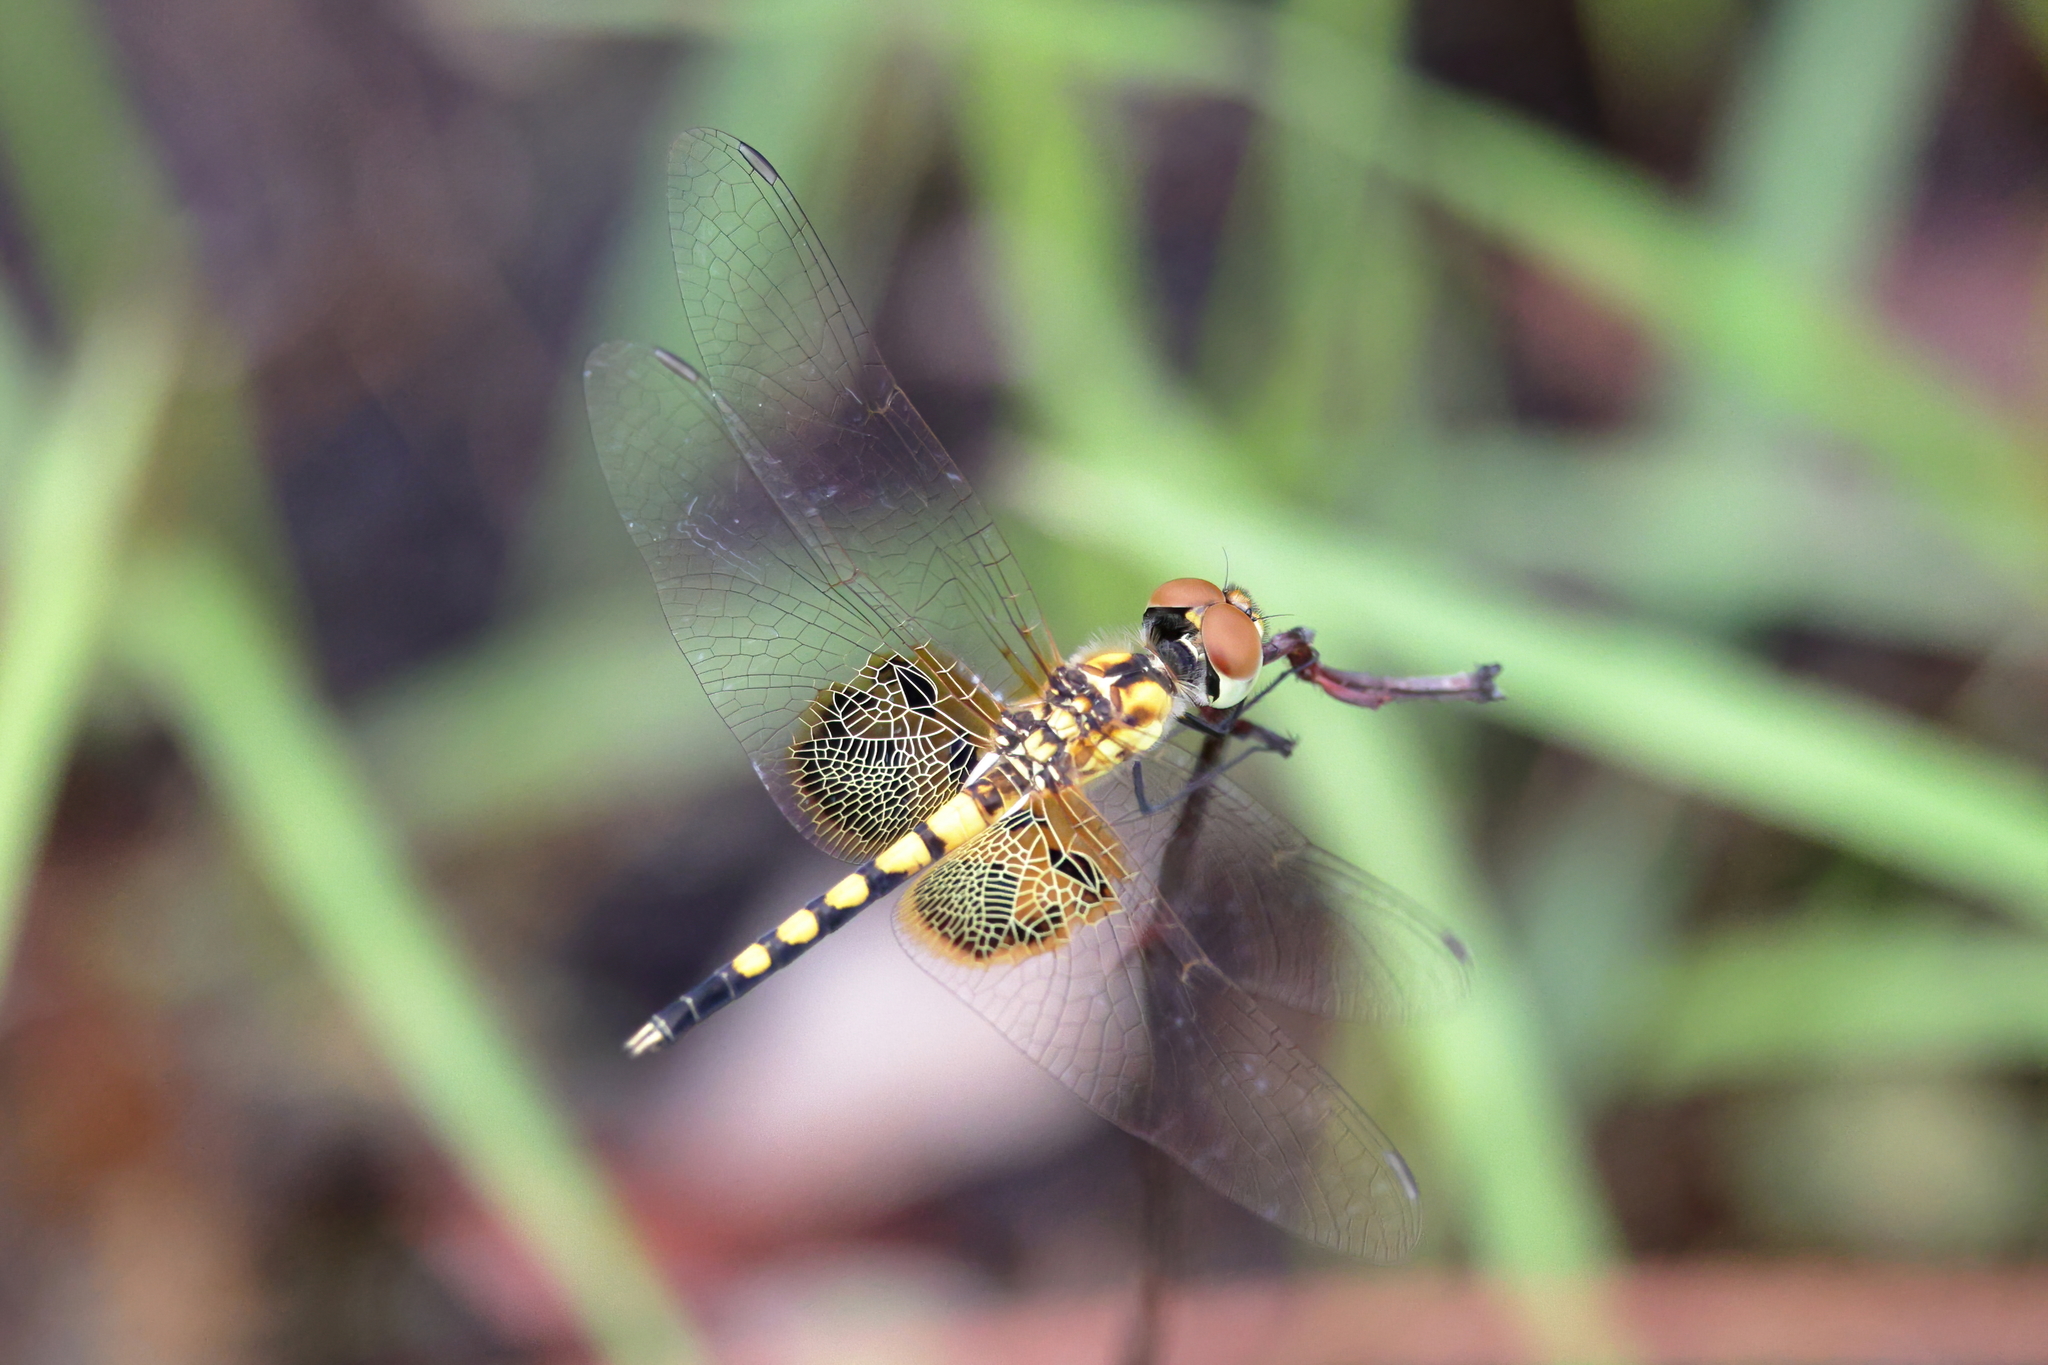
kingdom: Animalia
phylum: Arthropoda
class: Insecta
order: Odonata
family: Libellulidae
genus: Celithemis
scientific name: Celithemis amanda
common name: Amanda's pennant
